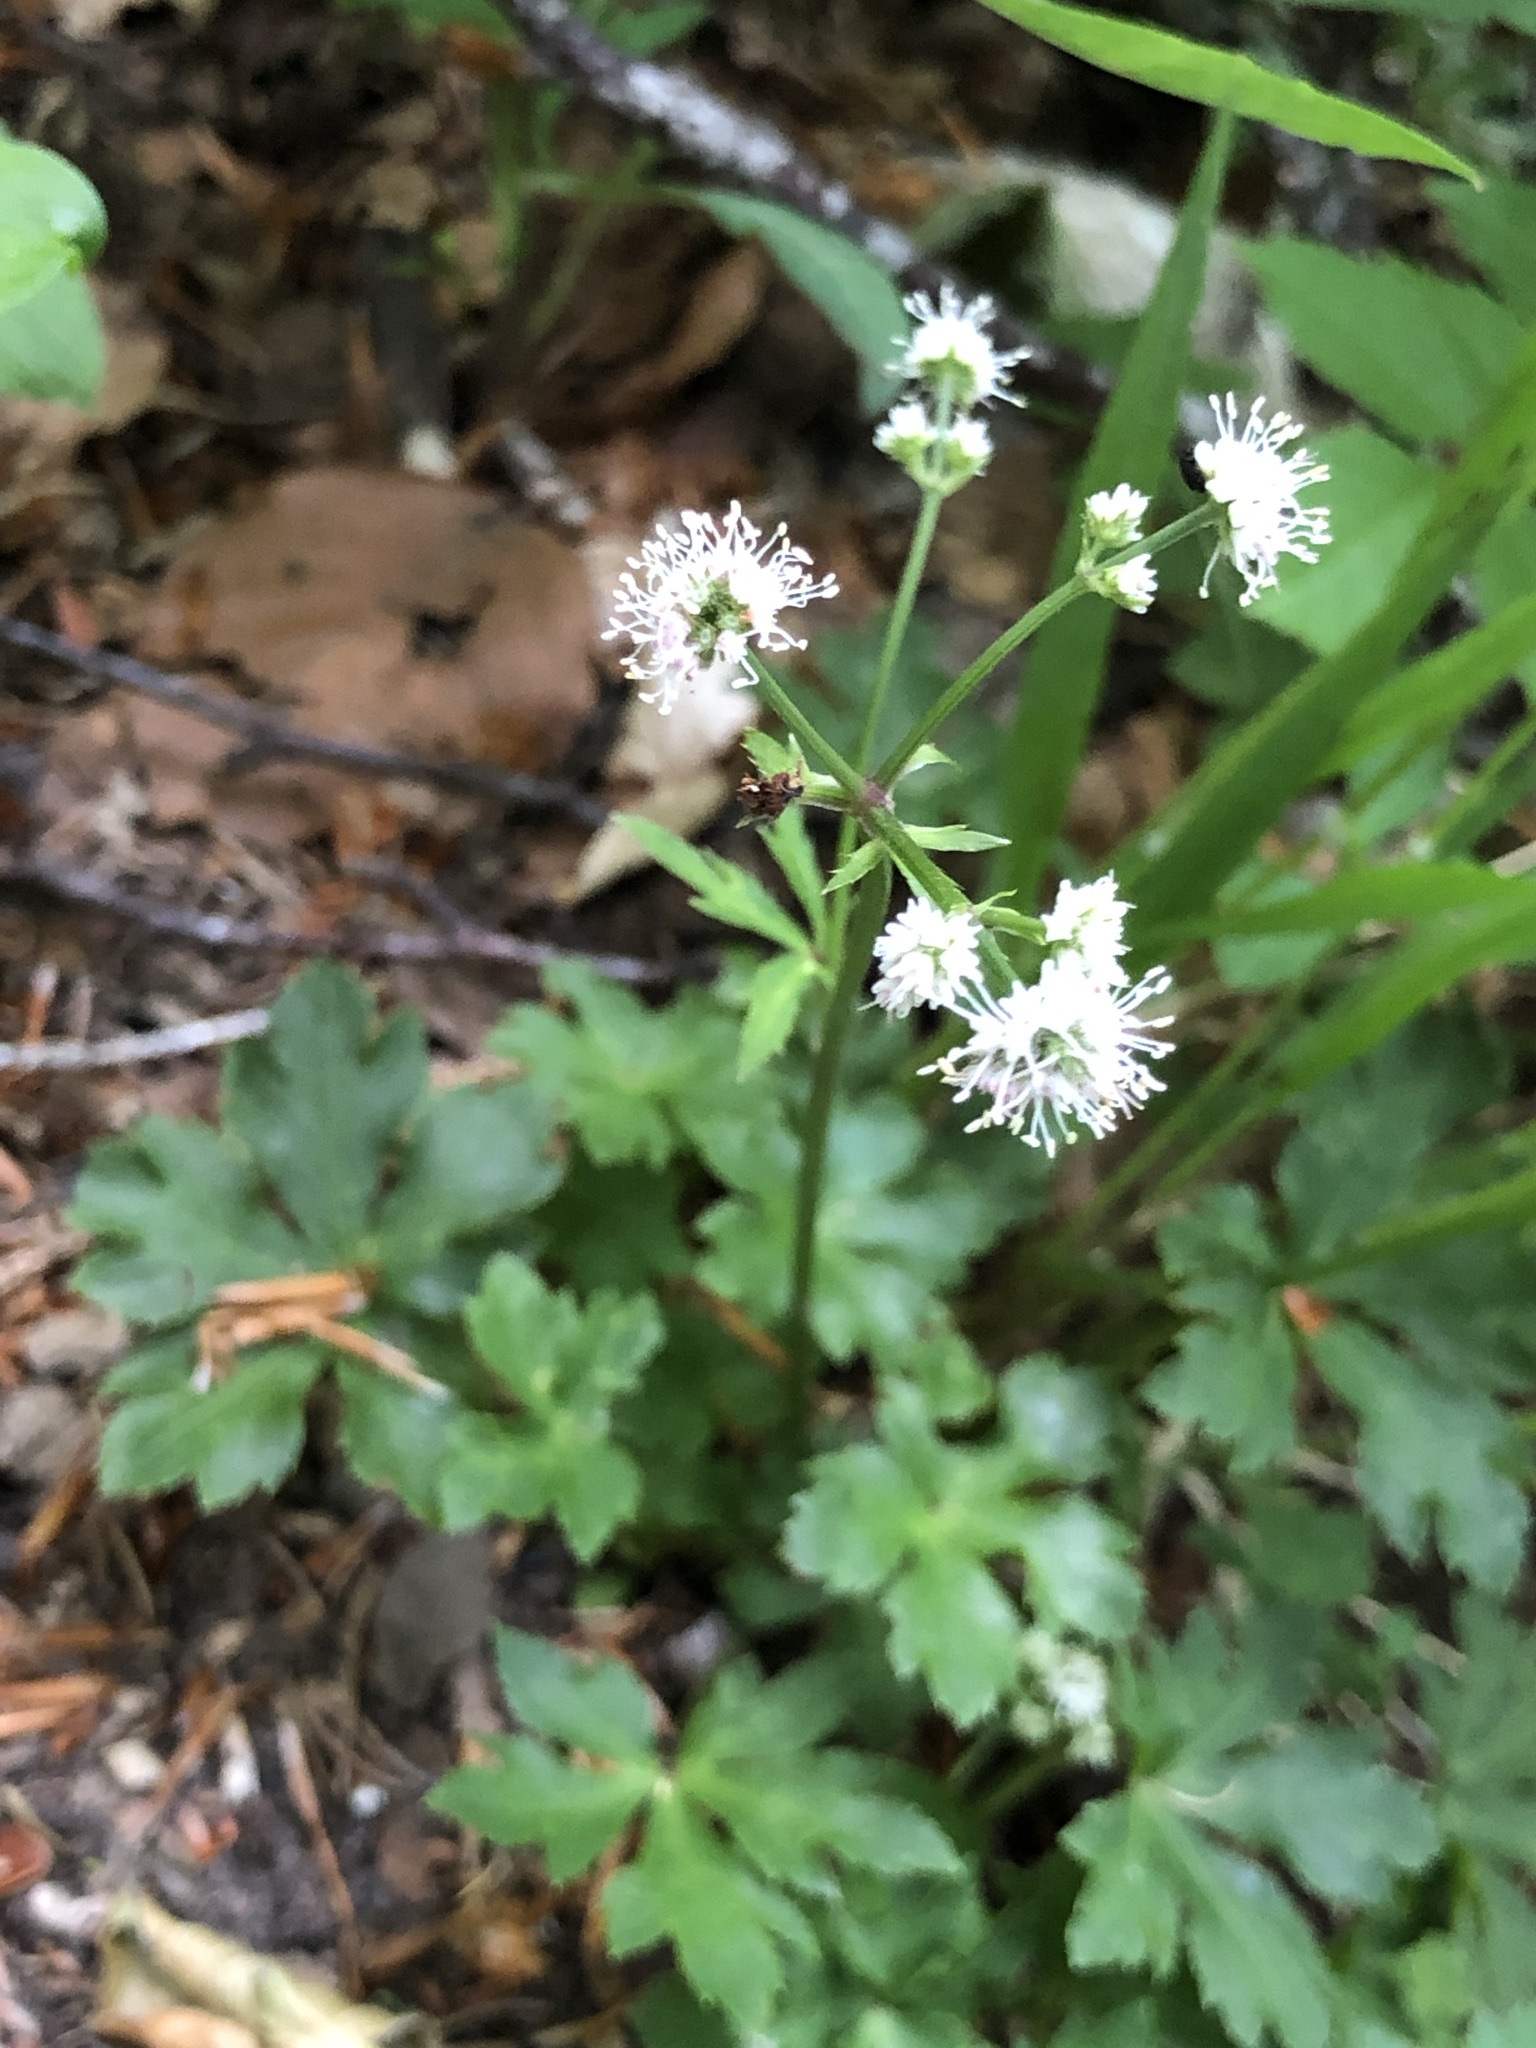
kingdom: Plantae
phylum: Tracheophyta
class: Magnoliopsida
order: Apiales
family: Apiaceae
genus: Sanicula
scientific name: Sanicula europaea
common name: Sanicle
